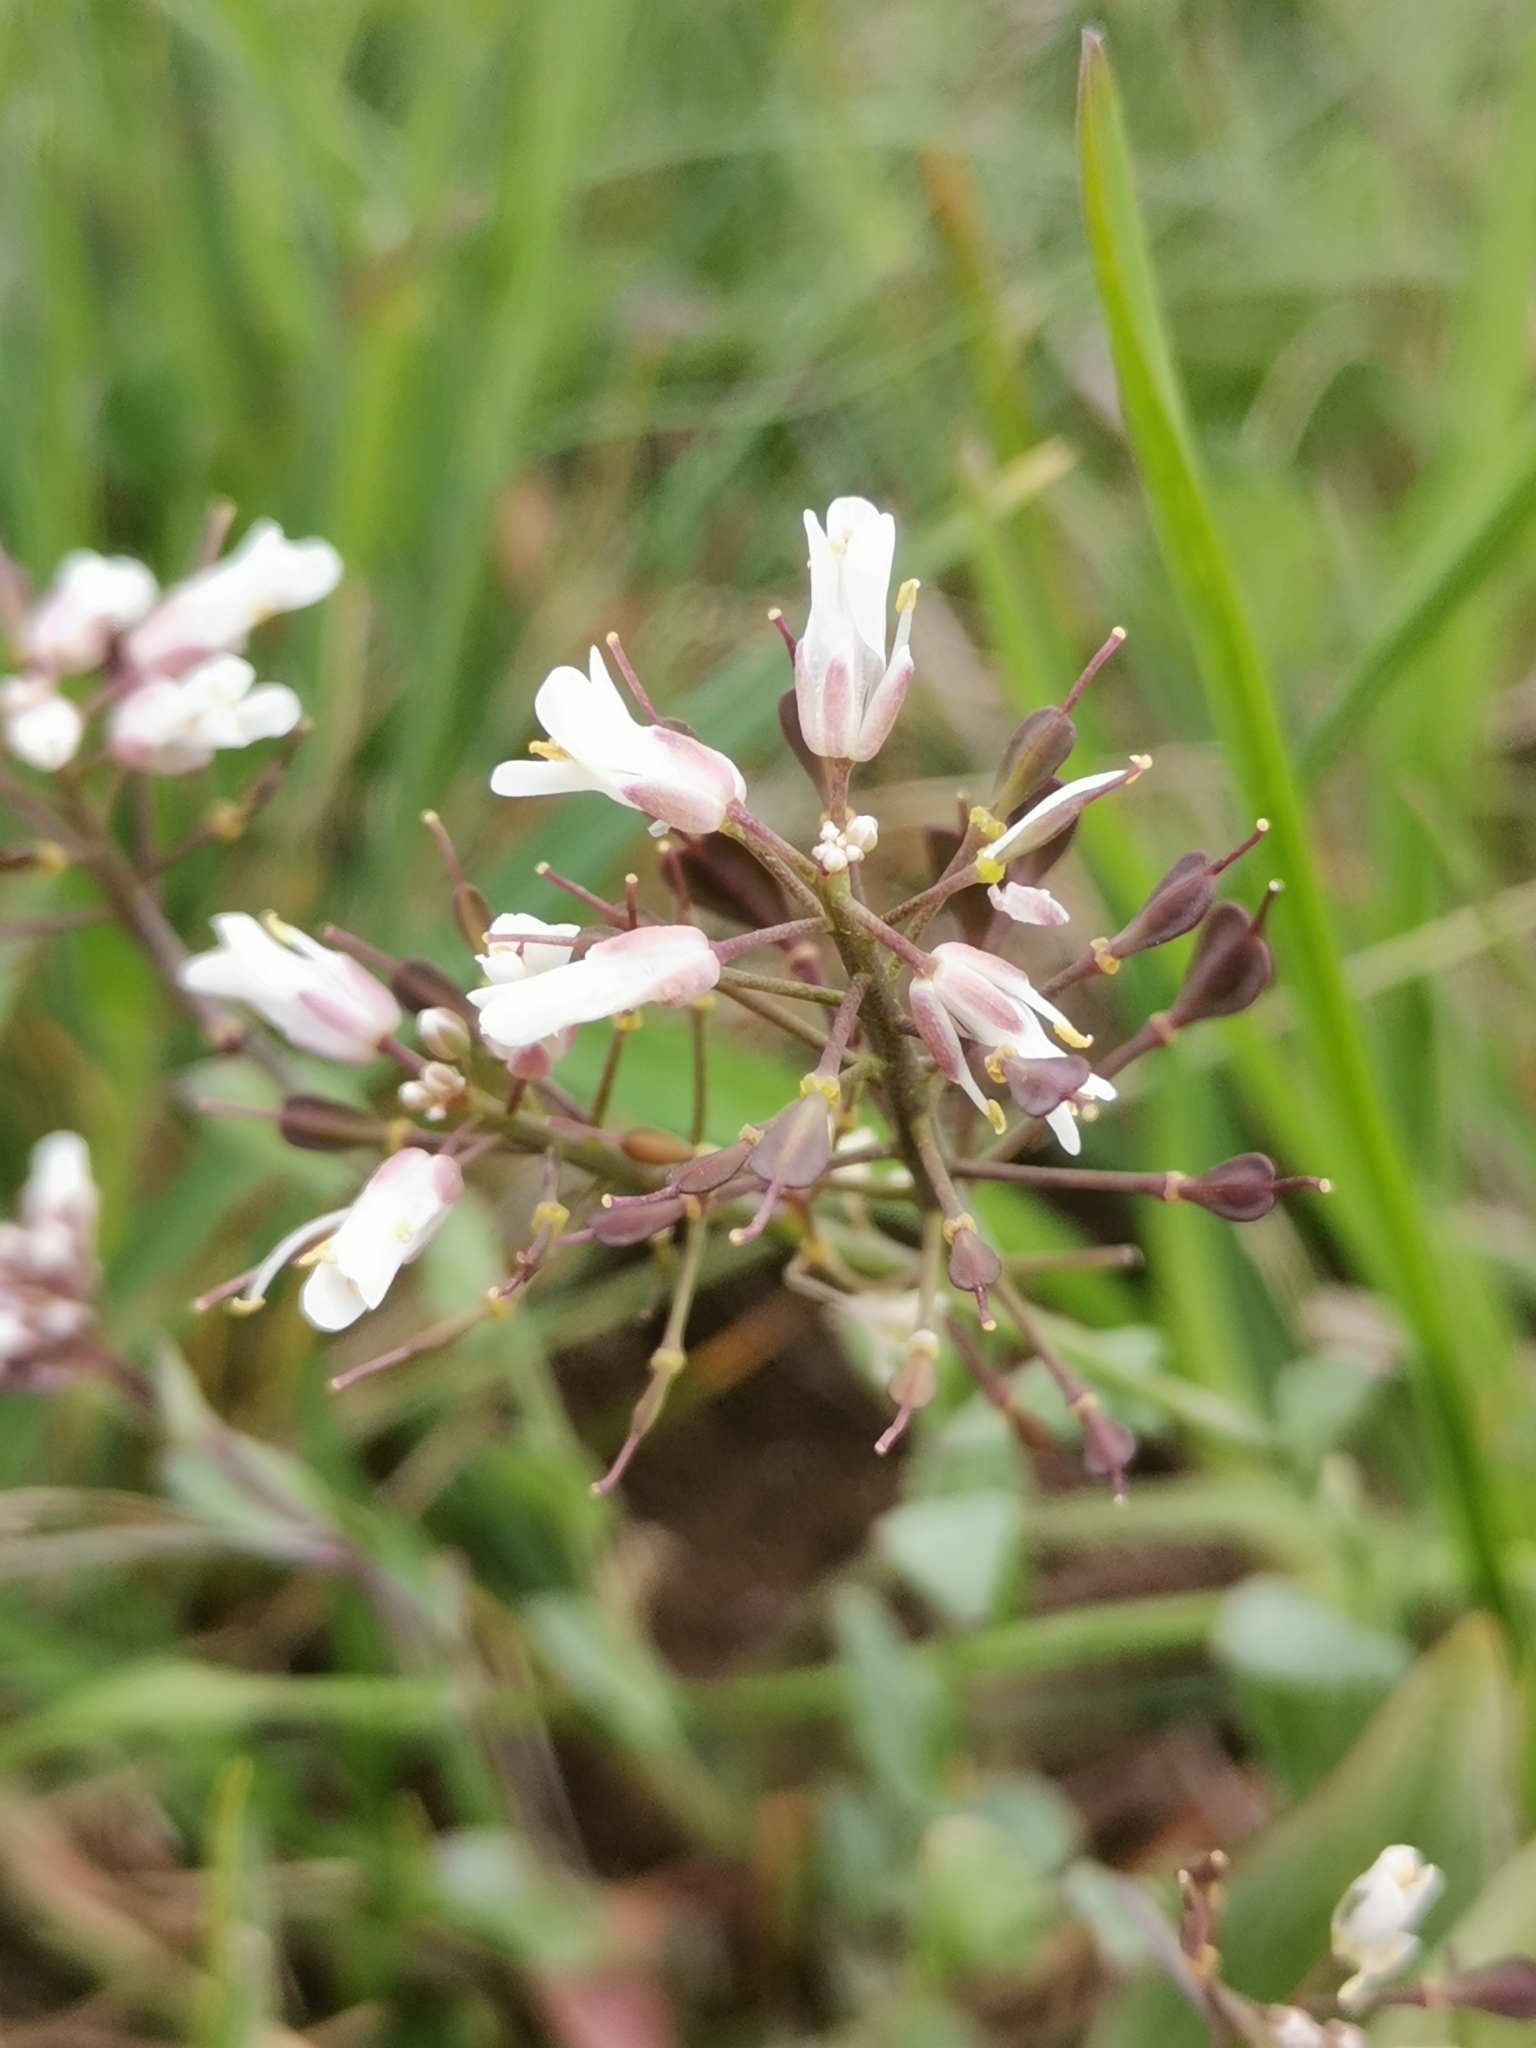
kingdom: Plantae
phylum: Tracheophyta
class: Magnoliopsida
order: Brassicales
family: Brassicaceae
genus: Noccaea
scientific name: Noccaea praecox
